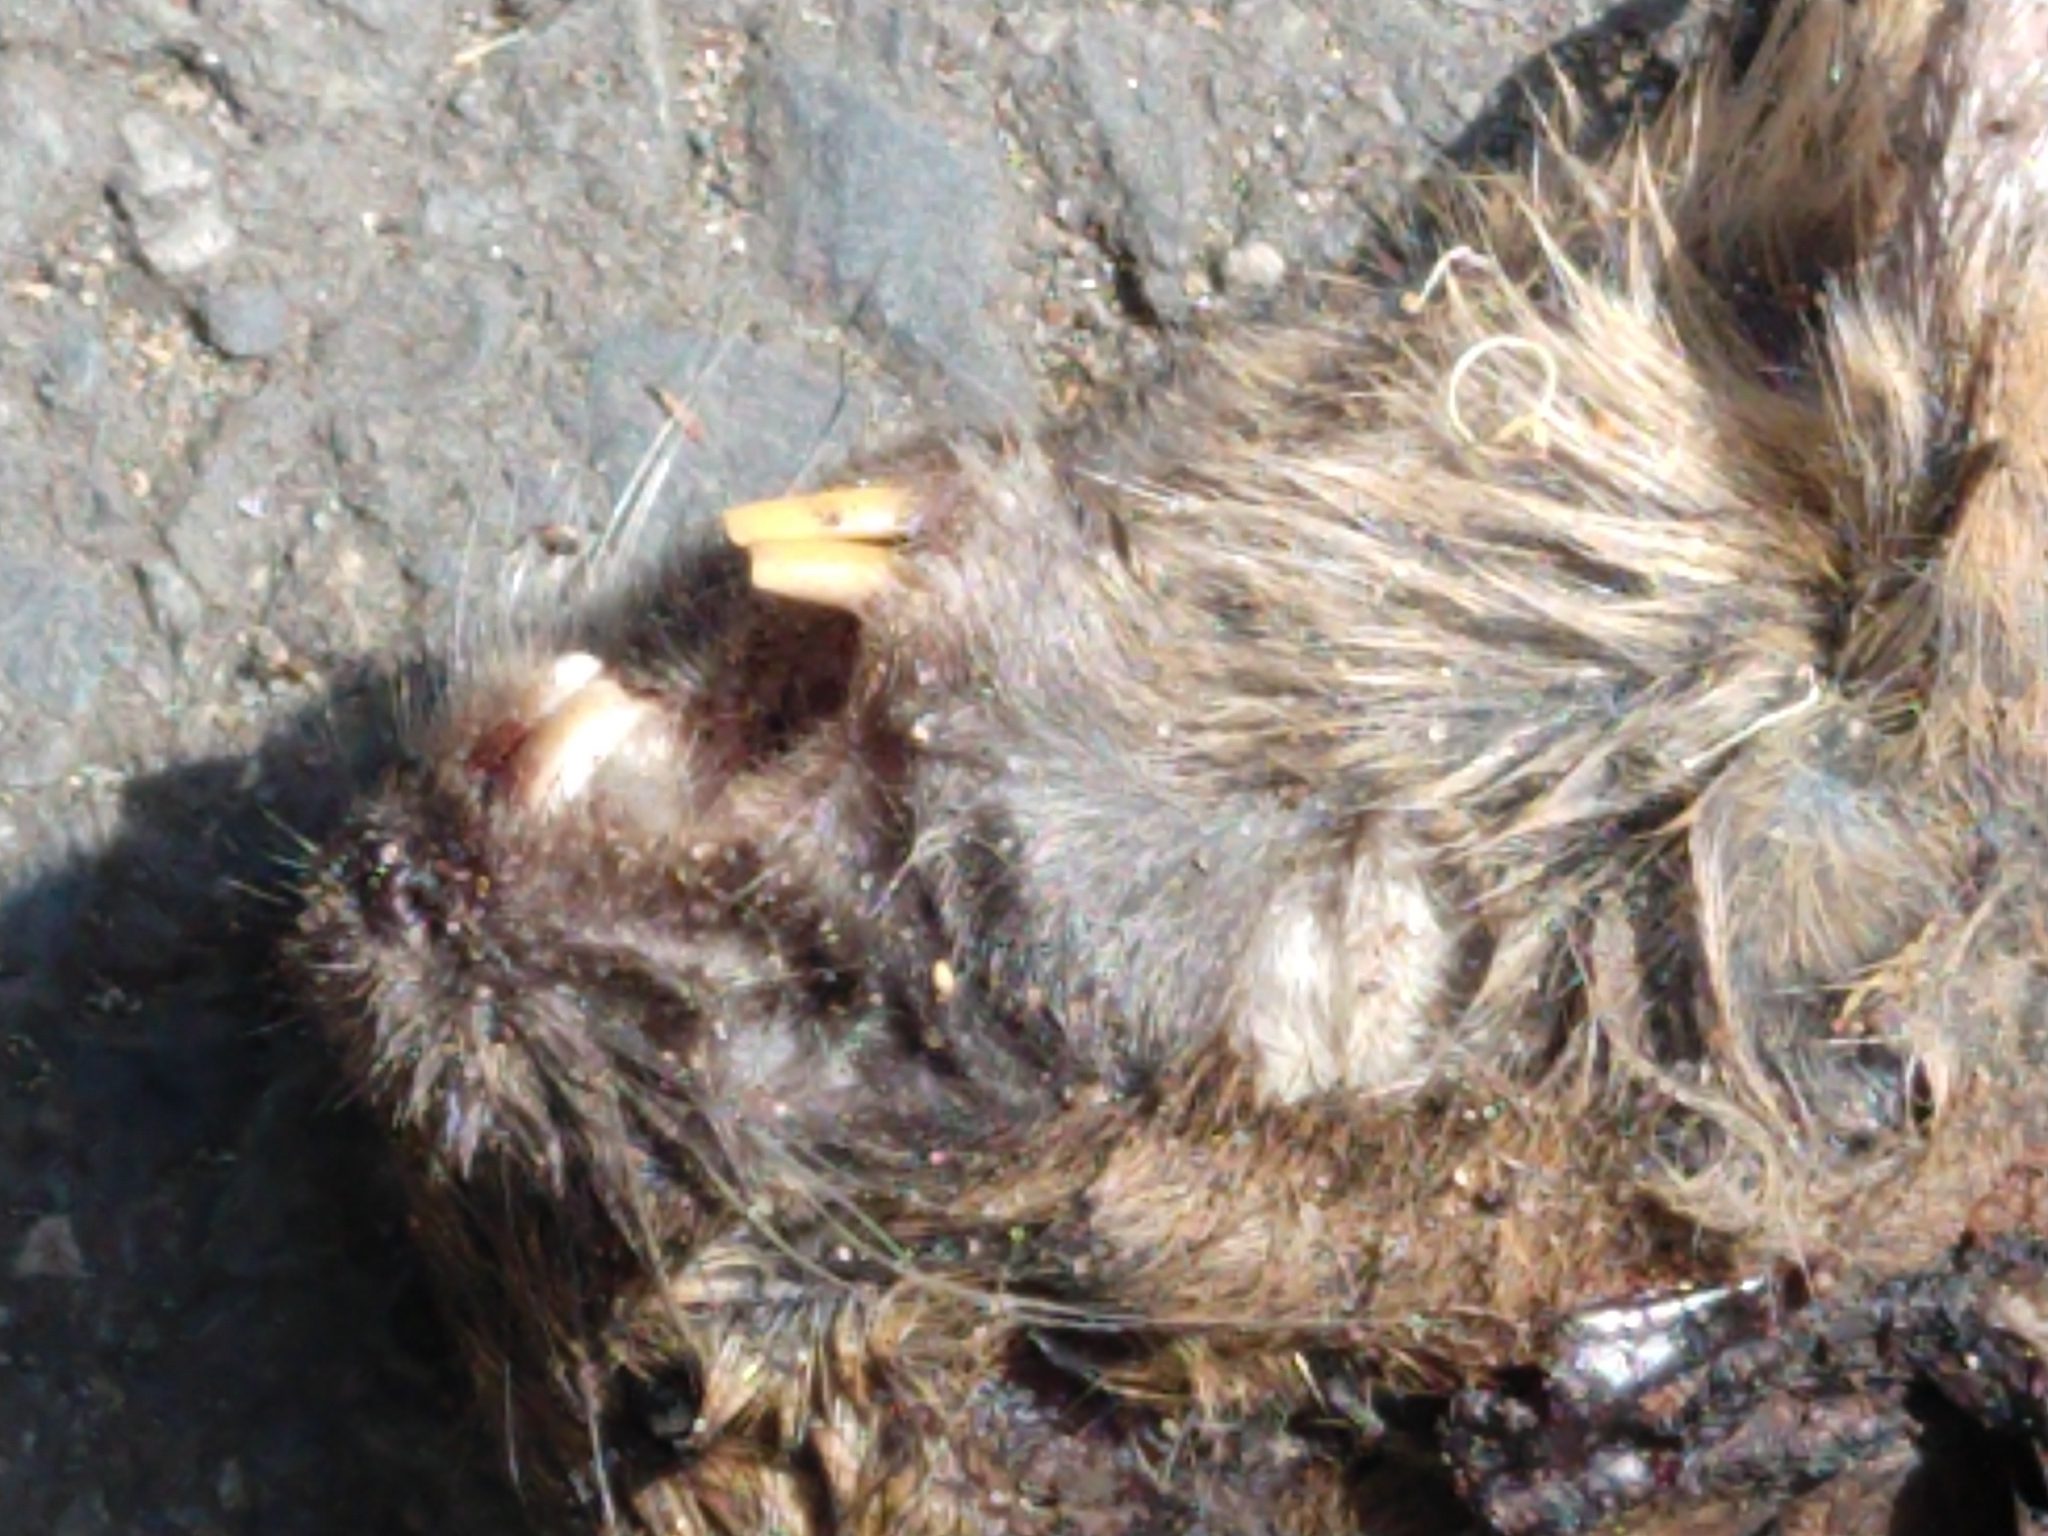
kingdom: Animalia
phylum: Chordata
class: Mammalia
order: Rodentia
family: Geomyidae
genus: Thomomys
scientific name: Thomomys bottae
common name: Botta's pocket gopher
